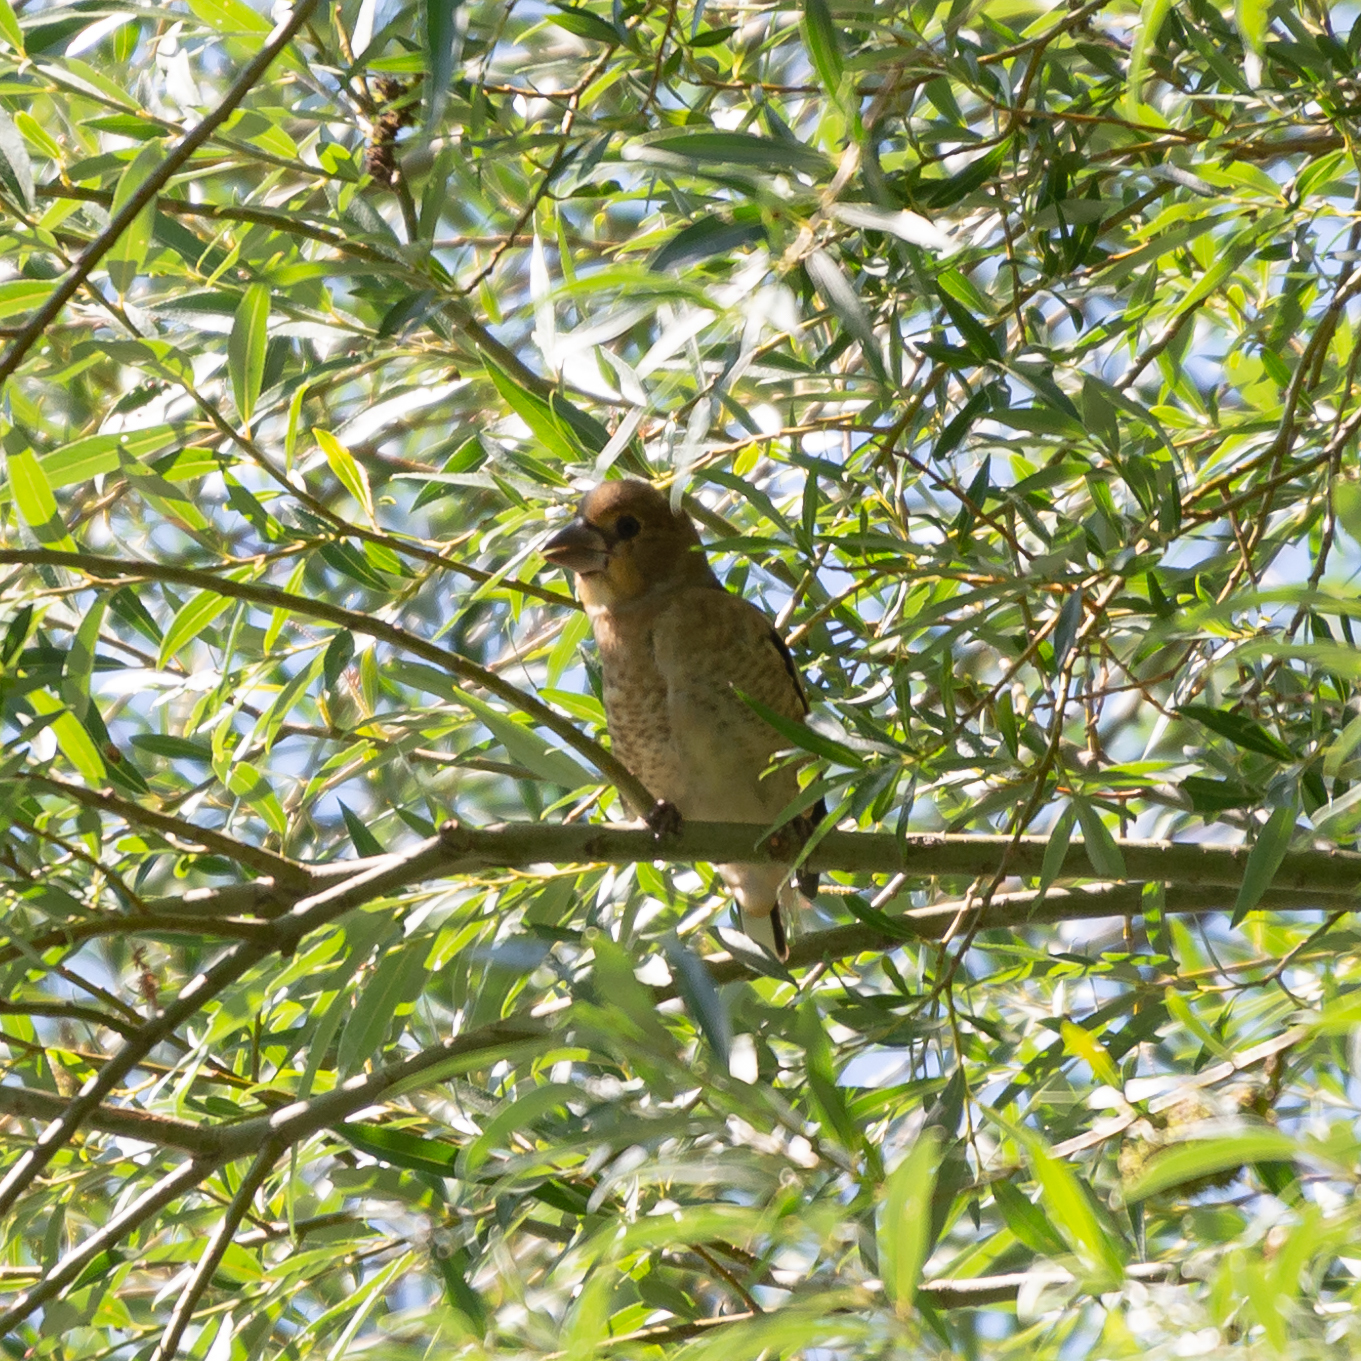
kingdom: Animalia
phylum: Chordata
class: Aves
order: Passeriformes
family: Fringillidae
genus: Coccothraustes
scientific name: Coccothraustes coccothraustes
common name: Hawfinch
